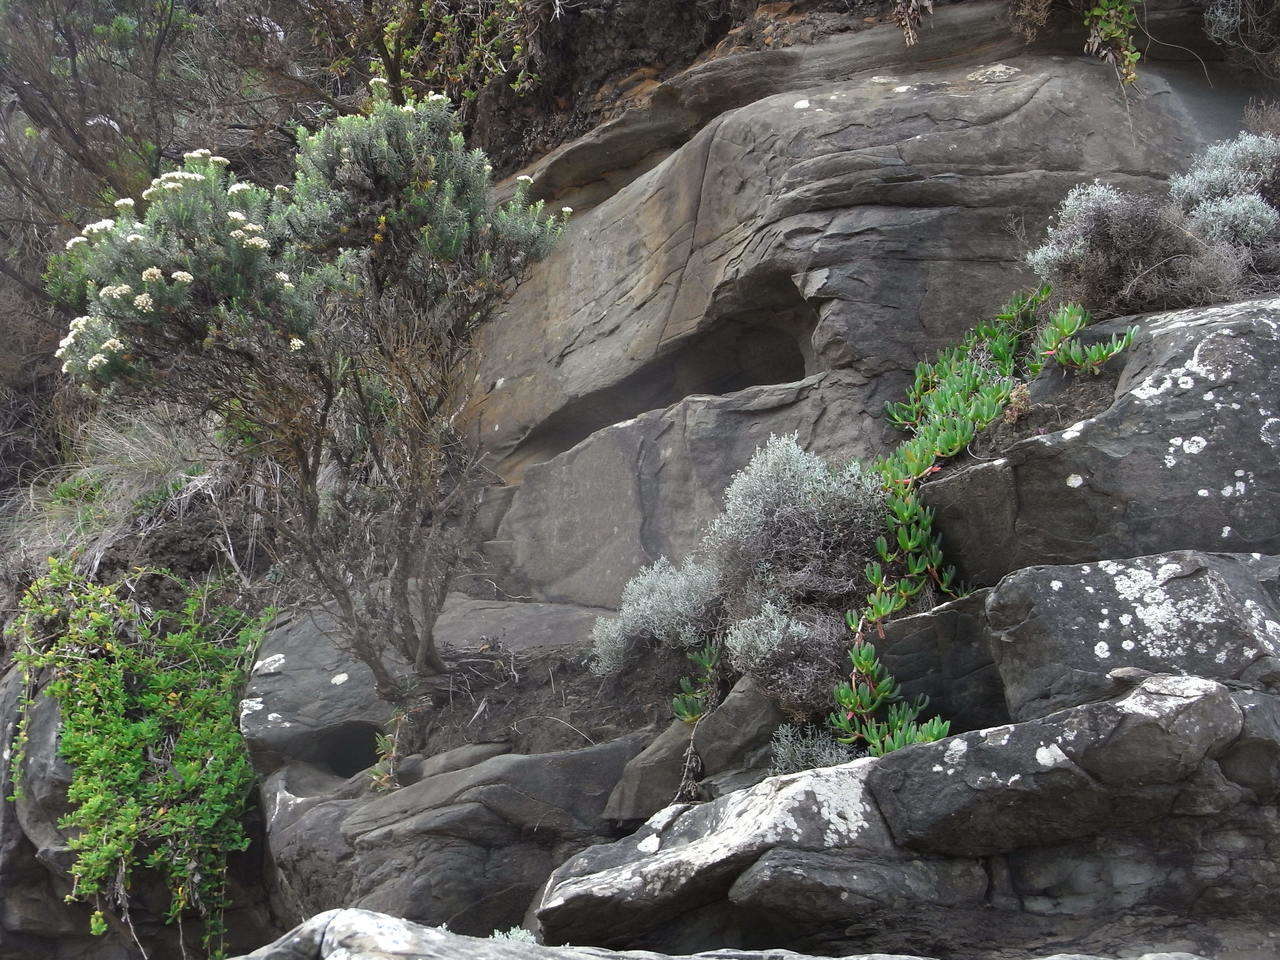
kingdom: Plantae
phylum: Tracheophyta
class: Magnoliopsida
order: Asterales
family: Asteraceae
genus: Calocephalus
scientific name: Calocephalus brownii
